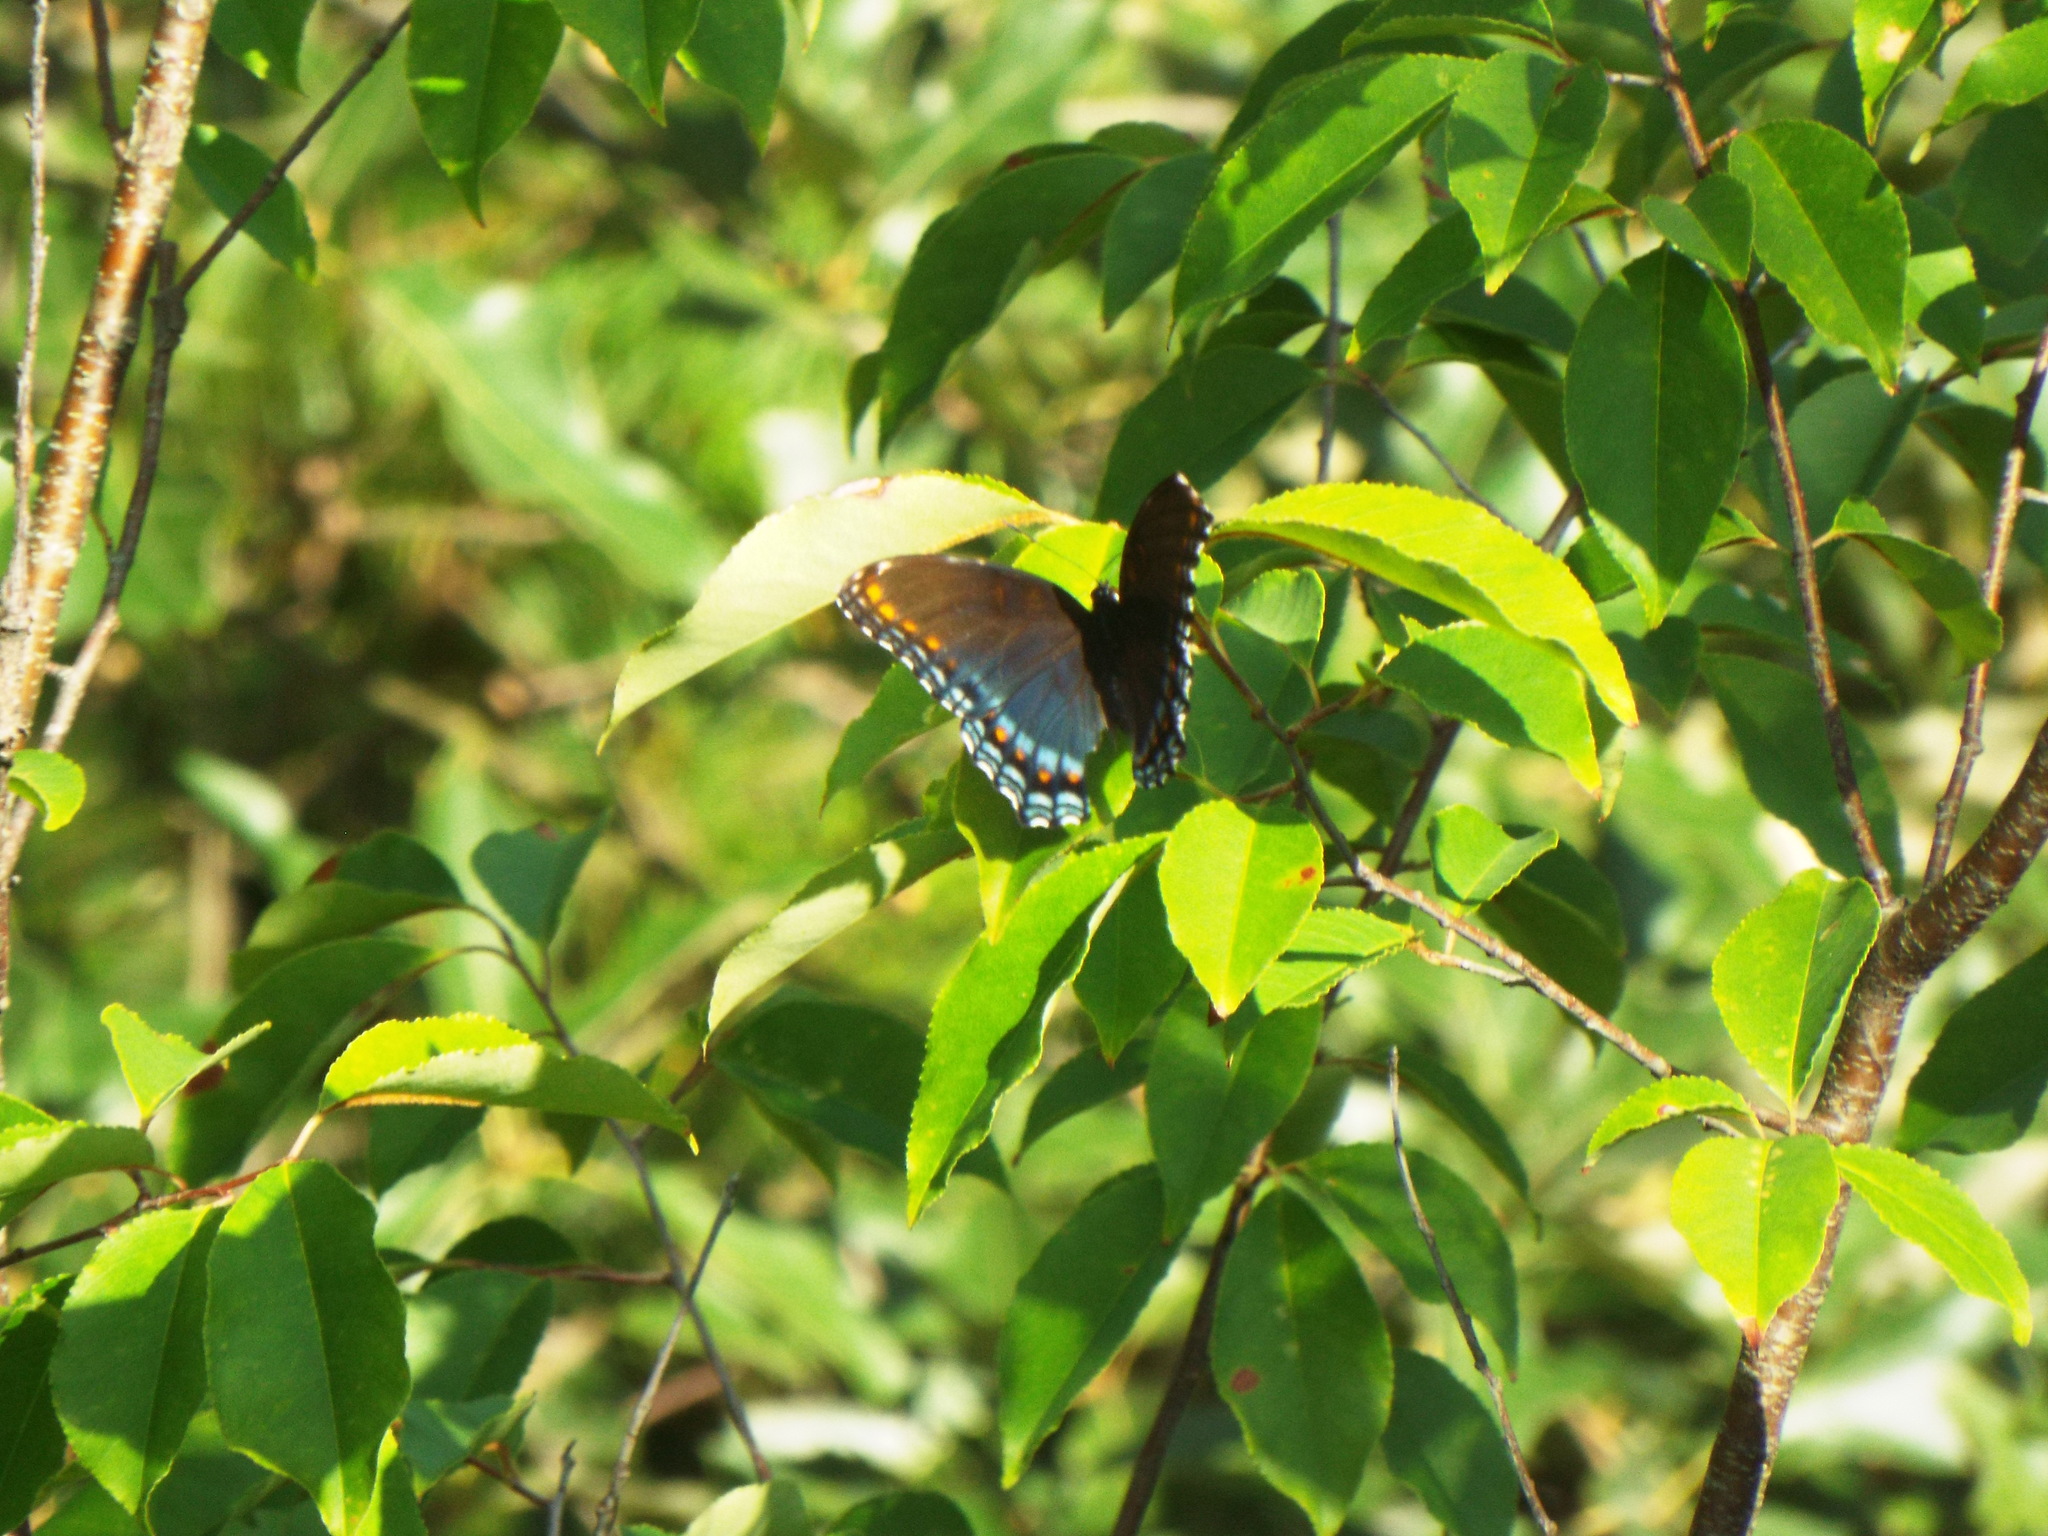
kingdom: Animalia
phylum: Arthropoda
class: Insecta
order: Lepidoptera
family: Nymphalidae
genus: Limenitis
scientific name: Limenitis astyanax
